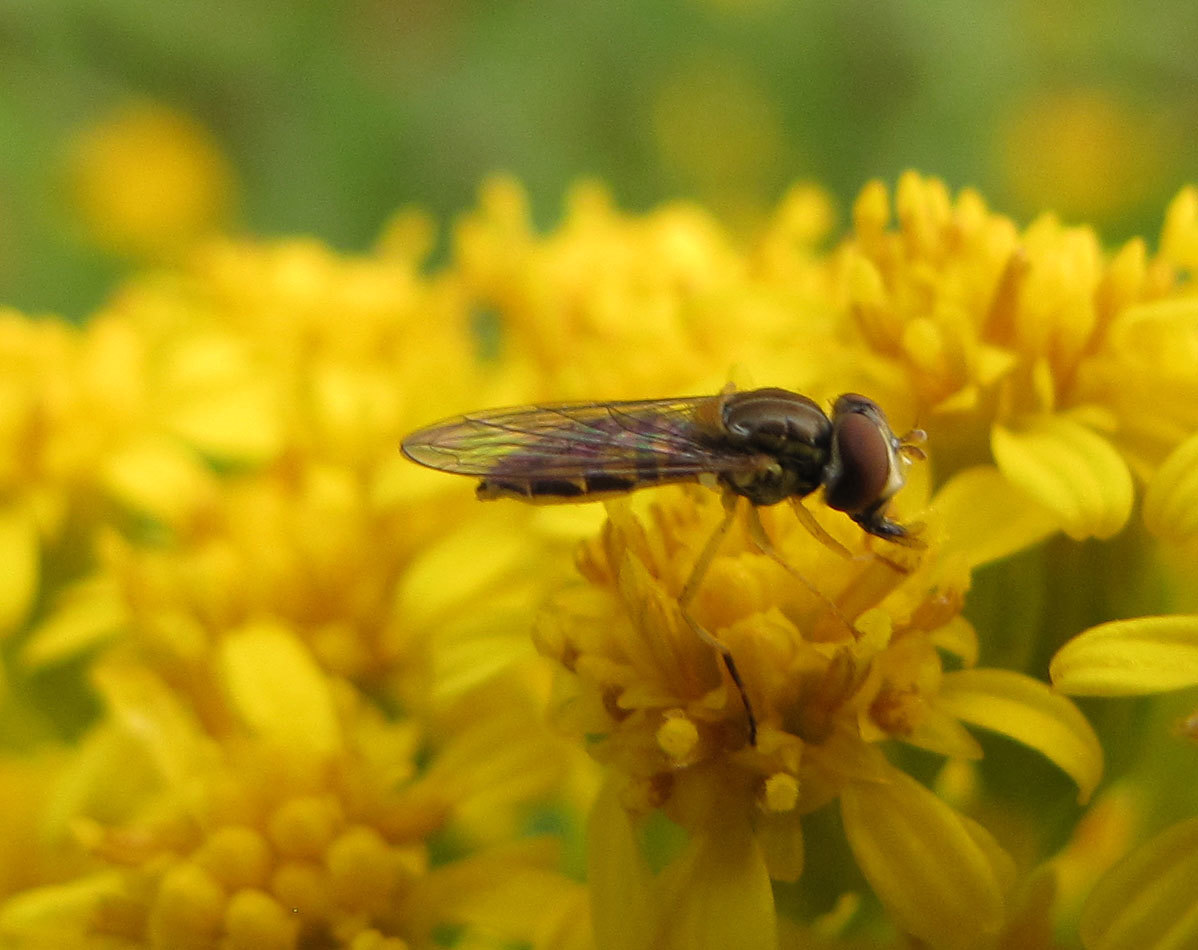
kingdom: Animalia
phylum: Arthropoda
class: Insecta
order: Diptera
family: Syrphidae
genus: Toxomerus
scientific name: Toxomerus marginatus
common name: Syrphid fly
